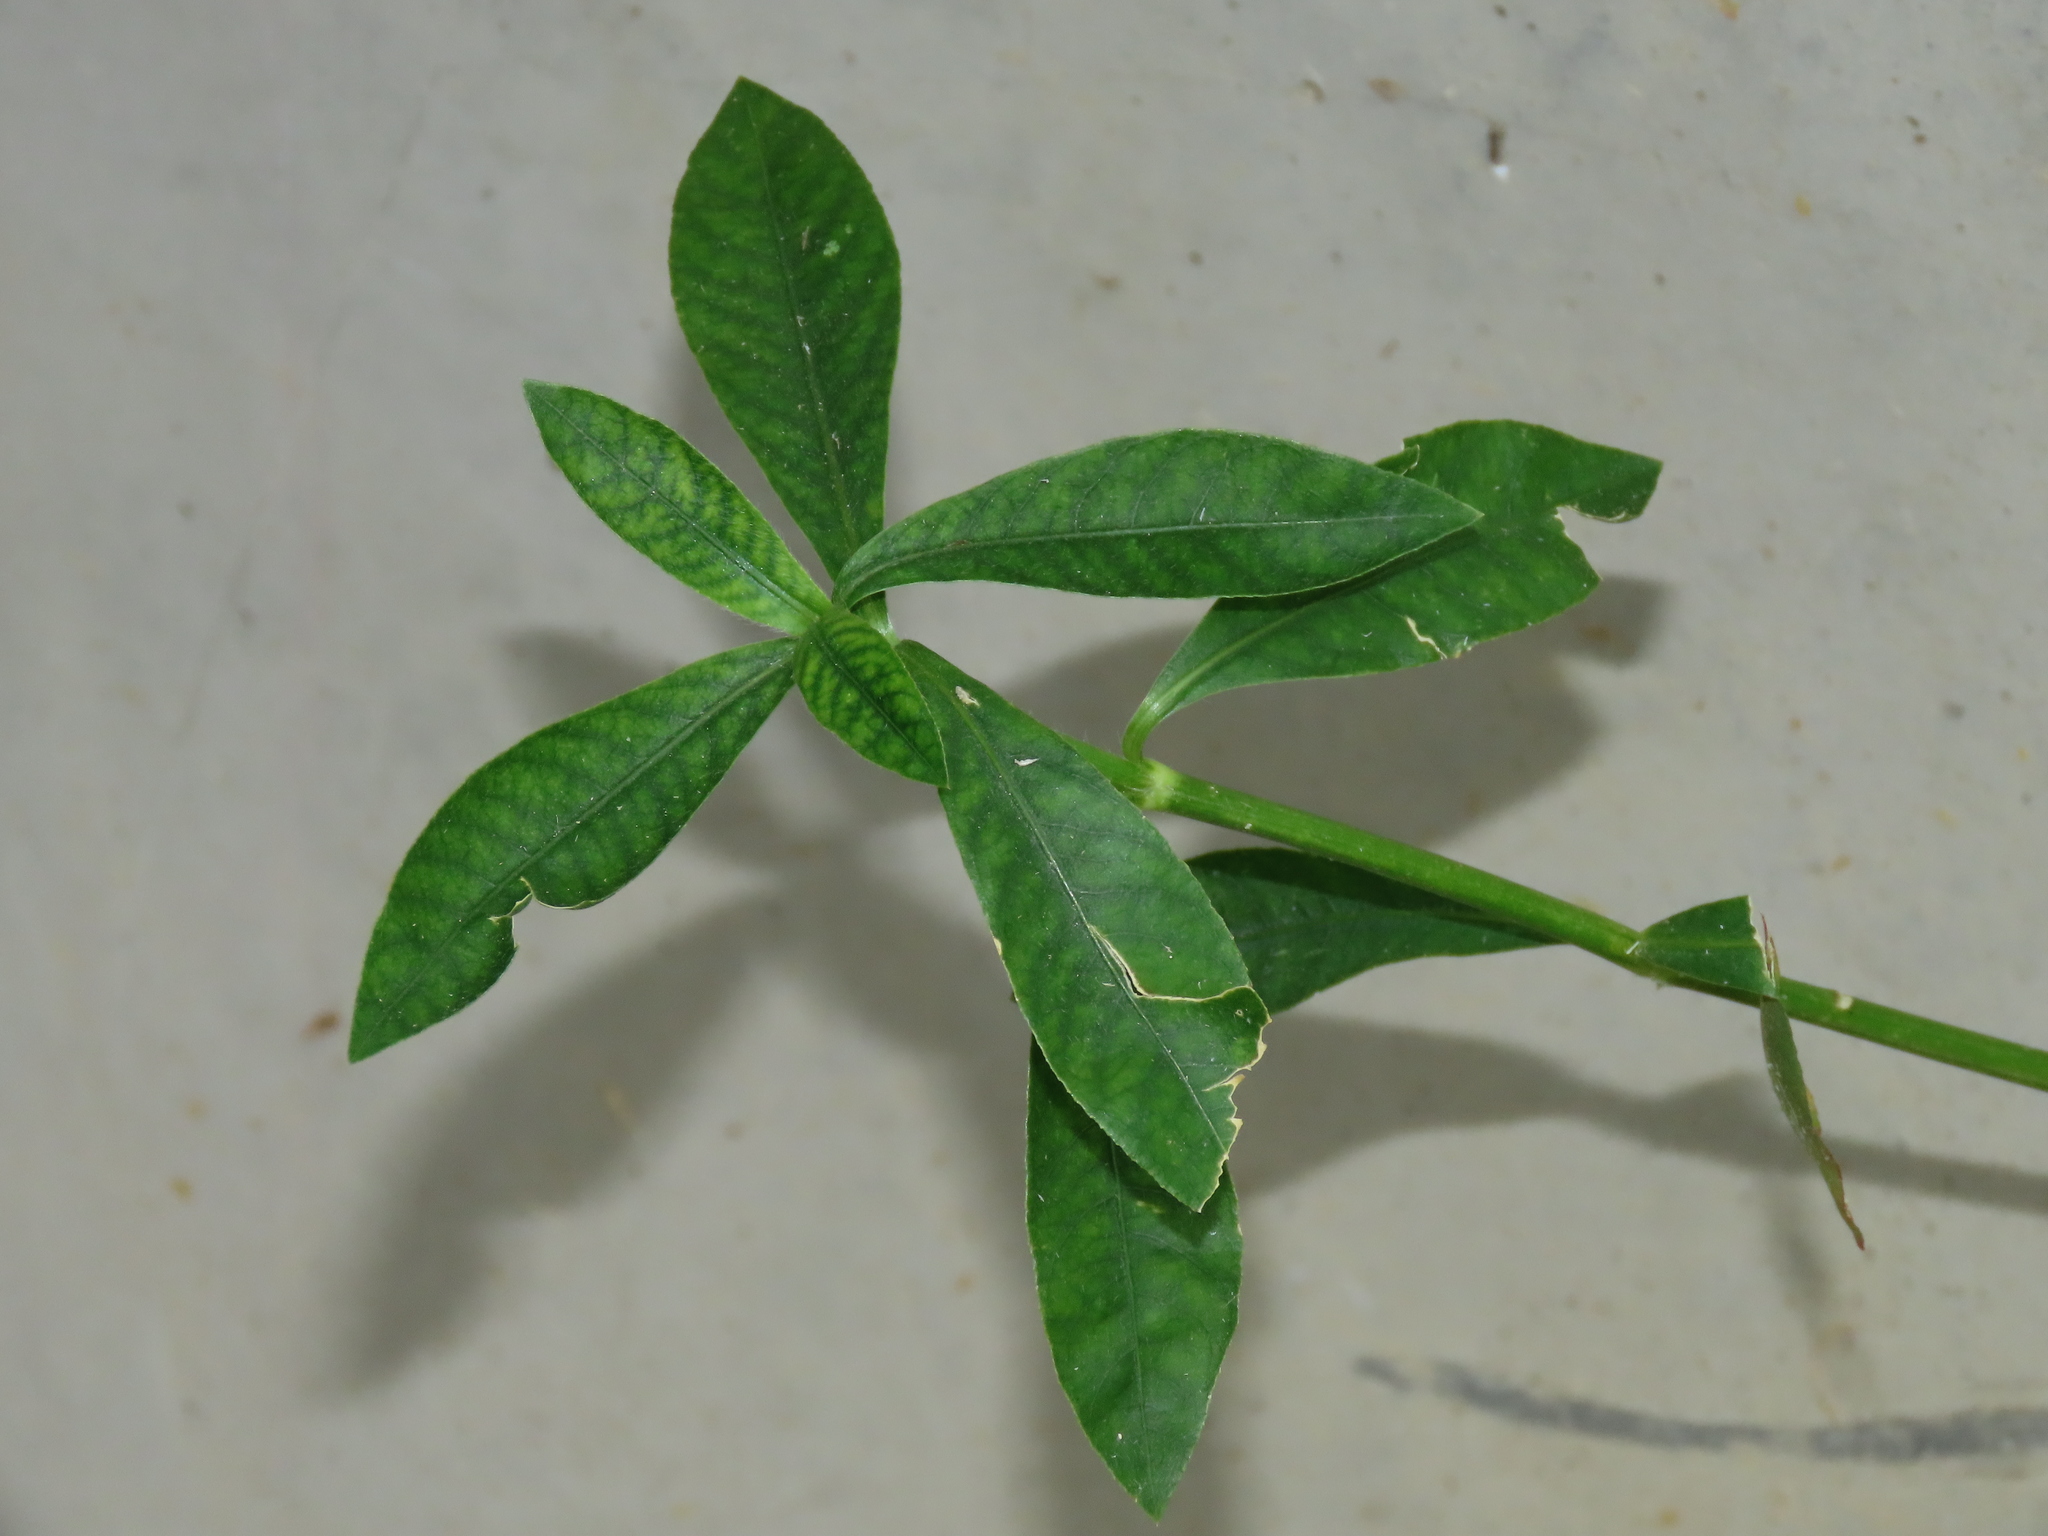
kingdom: Plantae
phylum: Tracheophyta
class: Magnoliopsida
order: Caryophyllales
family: Amaranthaceae
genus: Alternanthera
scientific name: Alternanthera philoxeroides
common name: Alligatorweed
